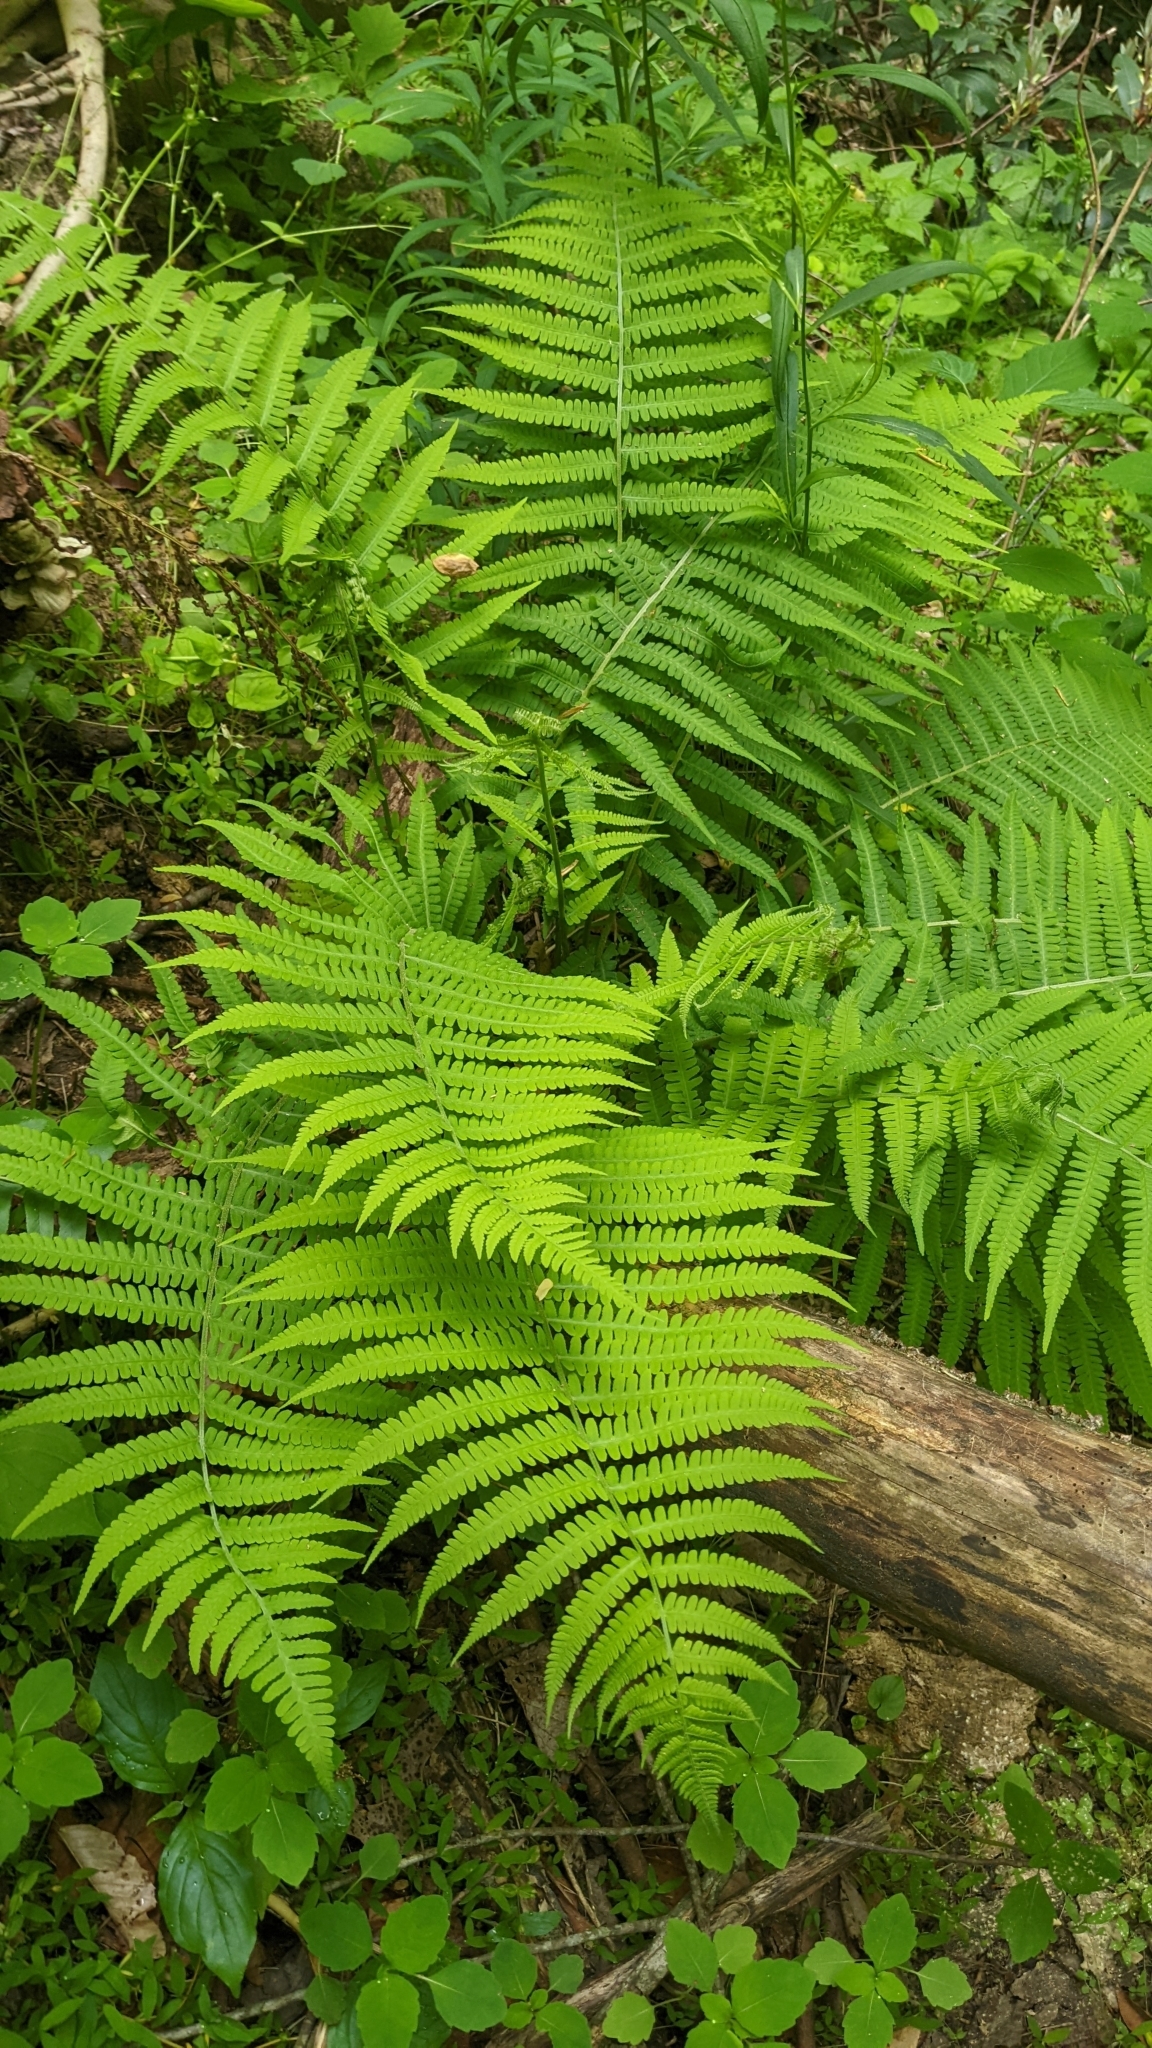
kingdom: Plantae
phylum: Tracheophyta
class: Polypodiopsida
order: Polypodiales
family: Athyriaceae
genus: Deparia
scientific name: Deparia acrostichoides
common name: Silver false spleenwort
